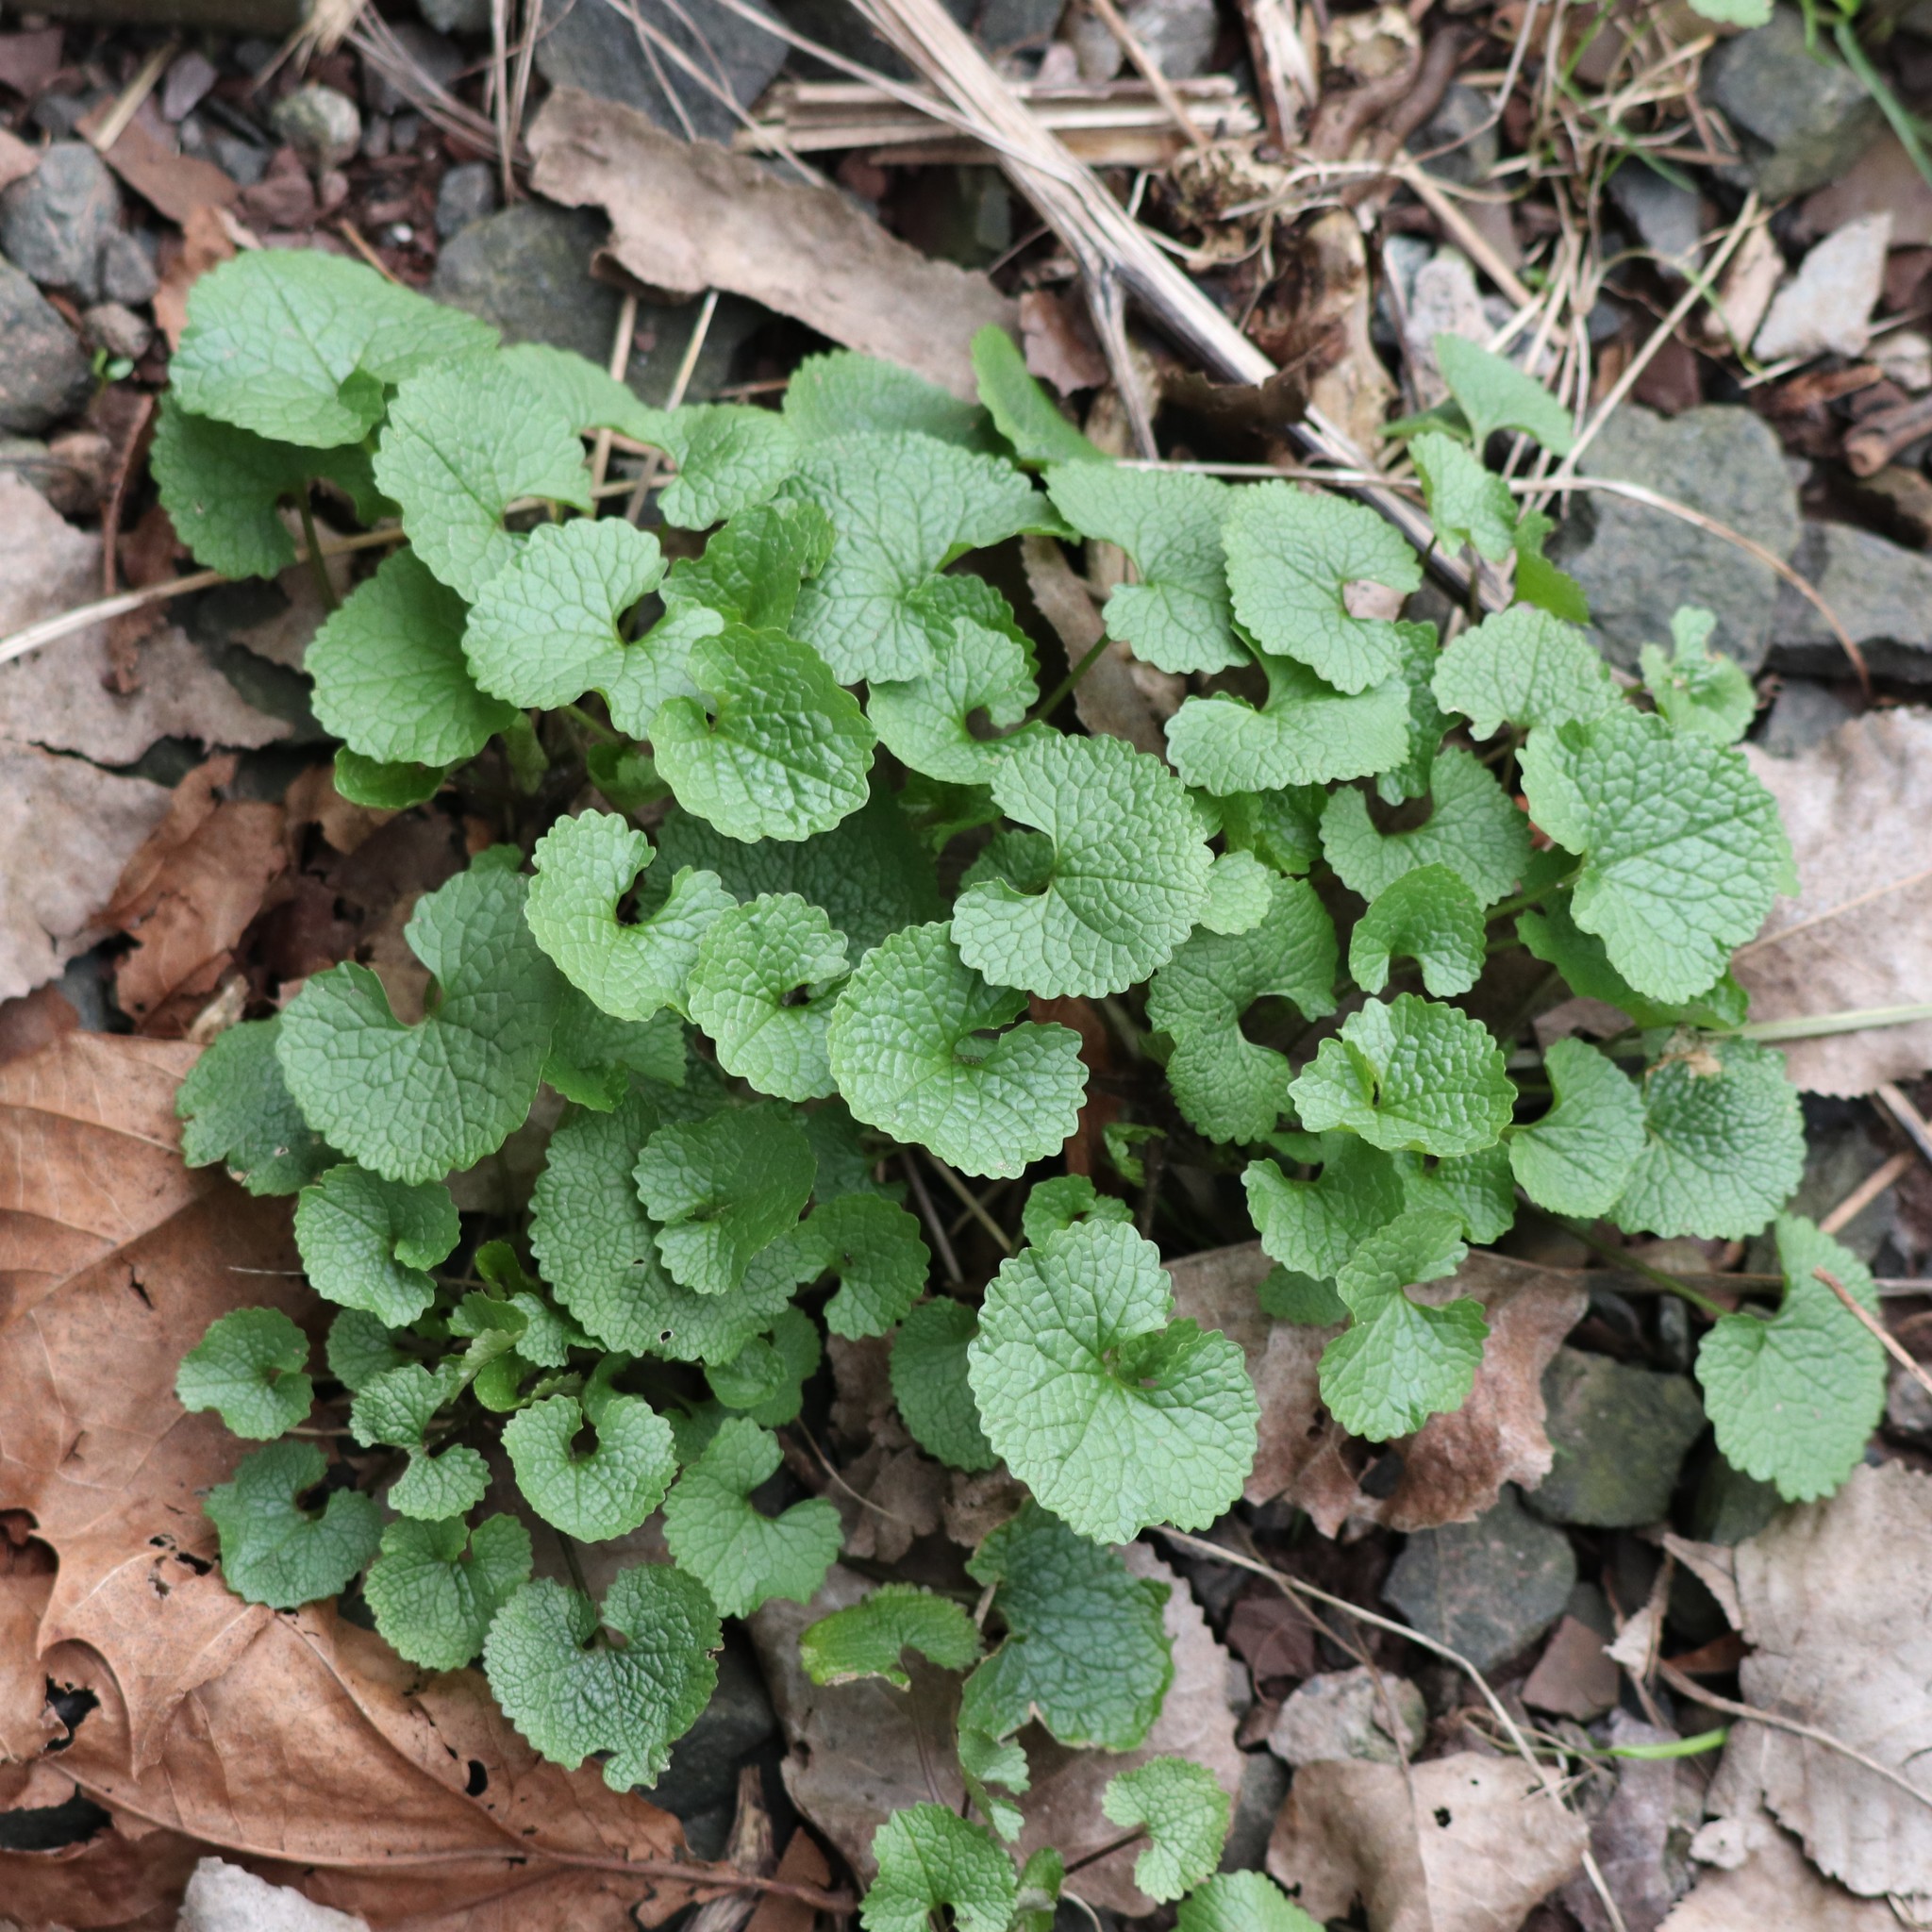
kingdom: Plantae
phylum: Tracheophyta
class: Magnoliopsida
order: Brassicales
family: Brassicaceae
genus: Alliaria
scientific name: Alliaria petiolata
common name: Garlic mustard
